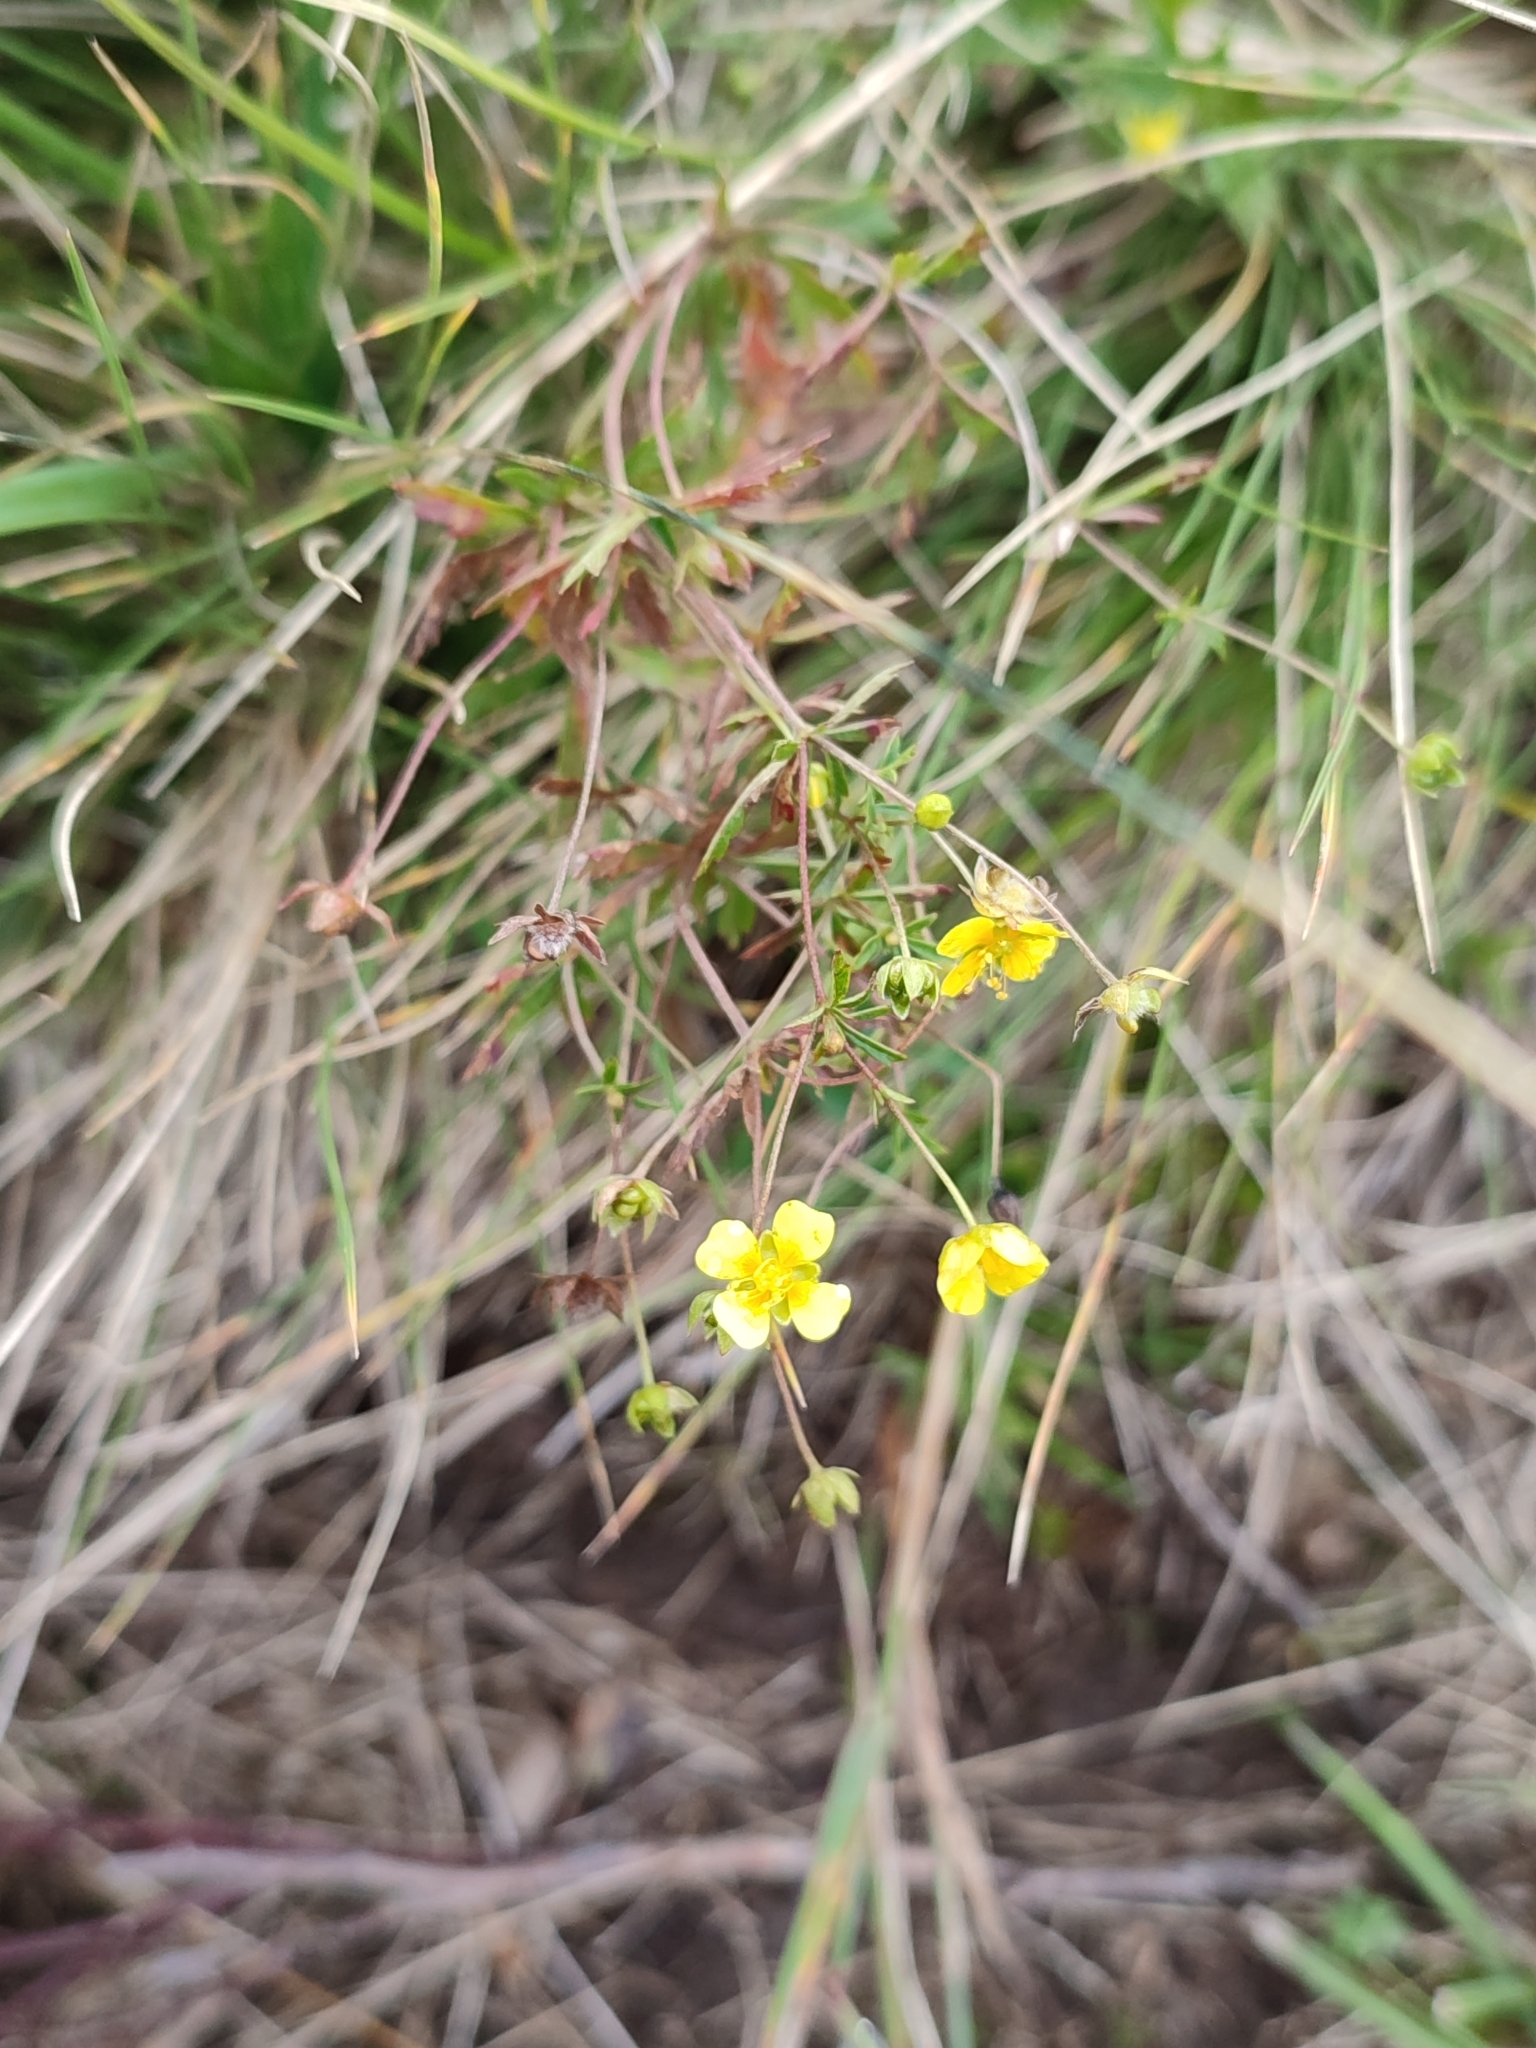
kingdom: Plantae
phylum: Tracheophyta
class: Magnoliopsida
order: Rosales
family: Rosaceae
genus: Potentilla
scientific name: Potentilla erecta
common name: Tormentil
